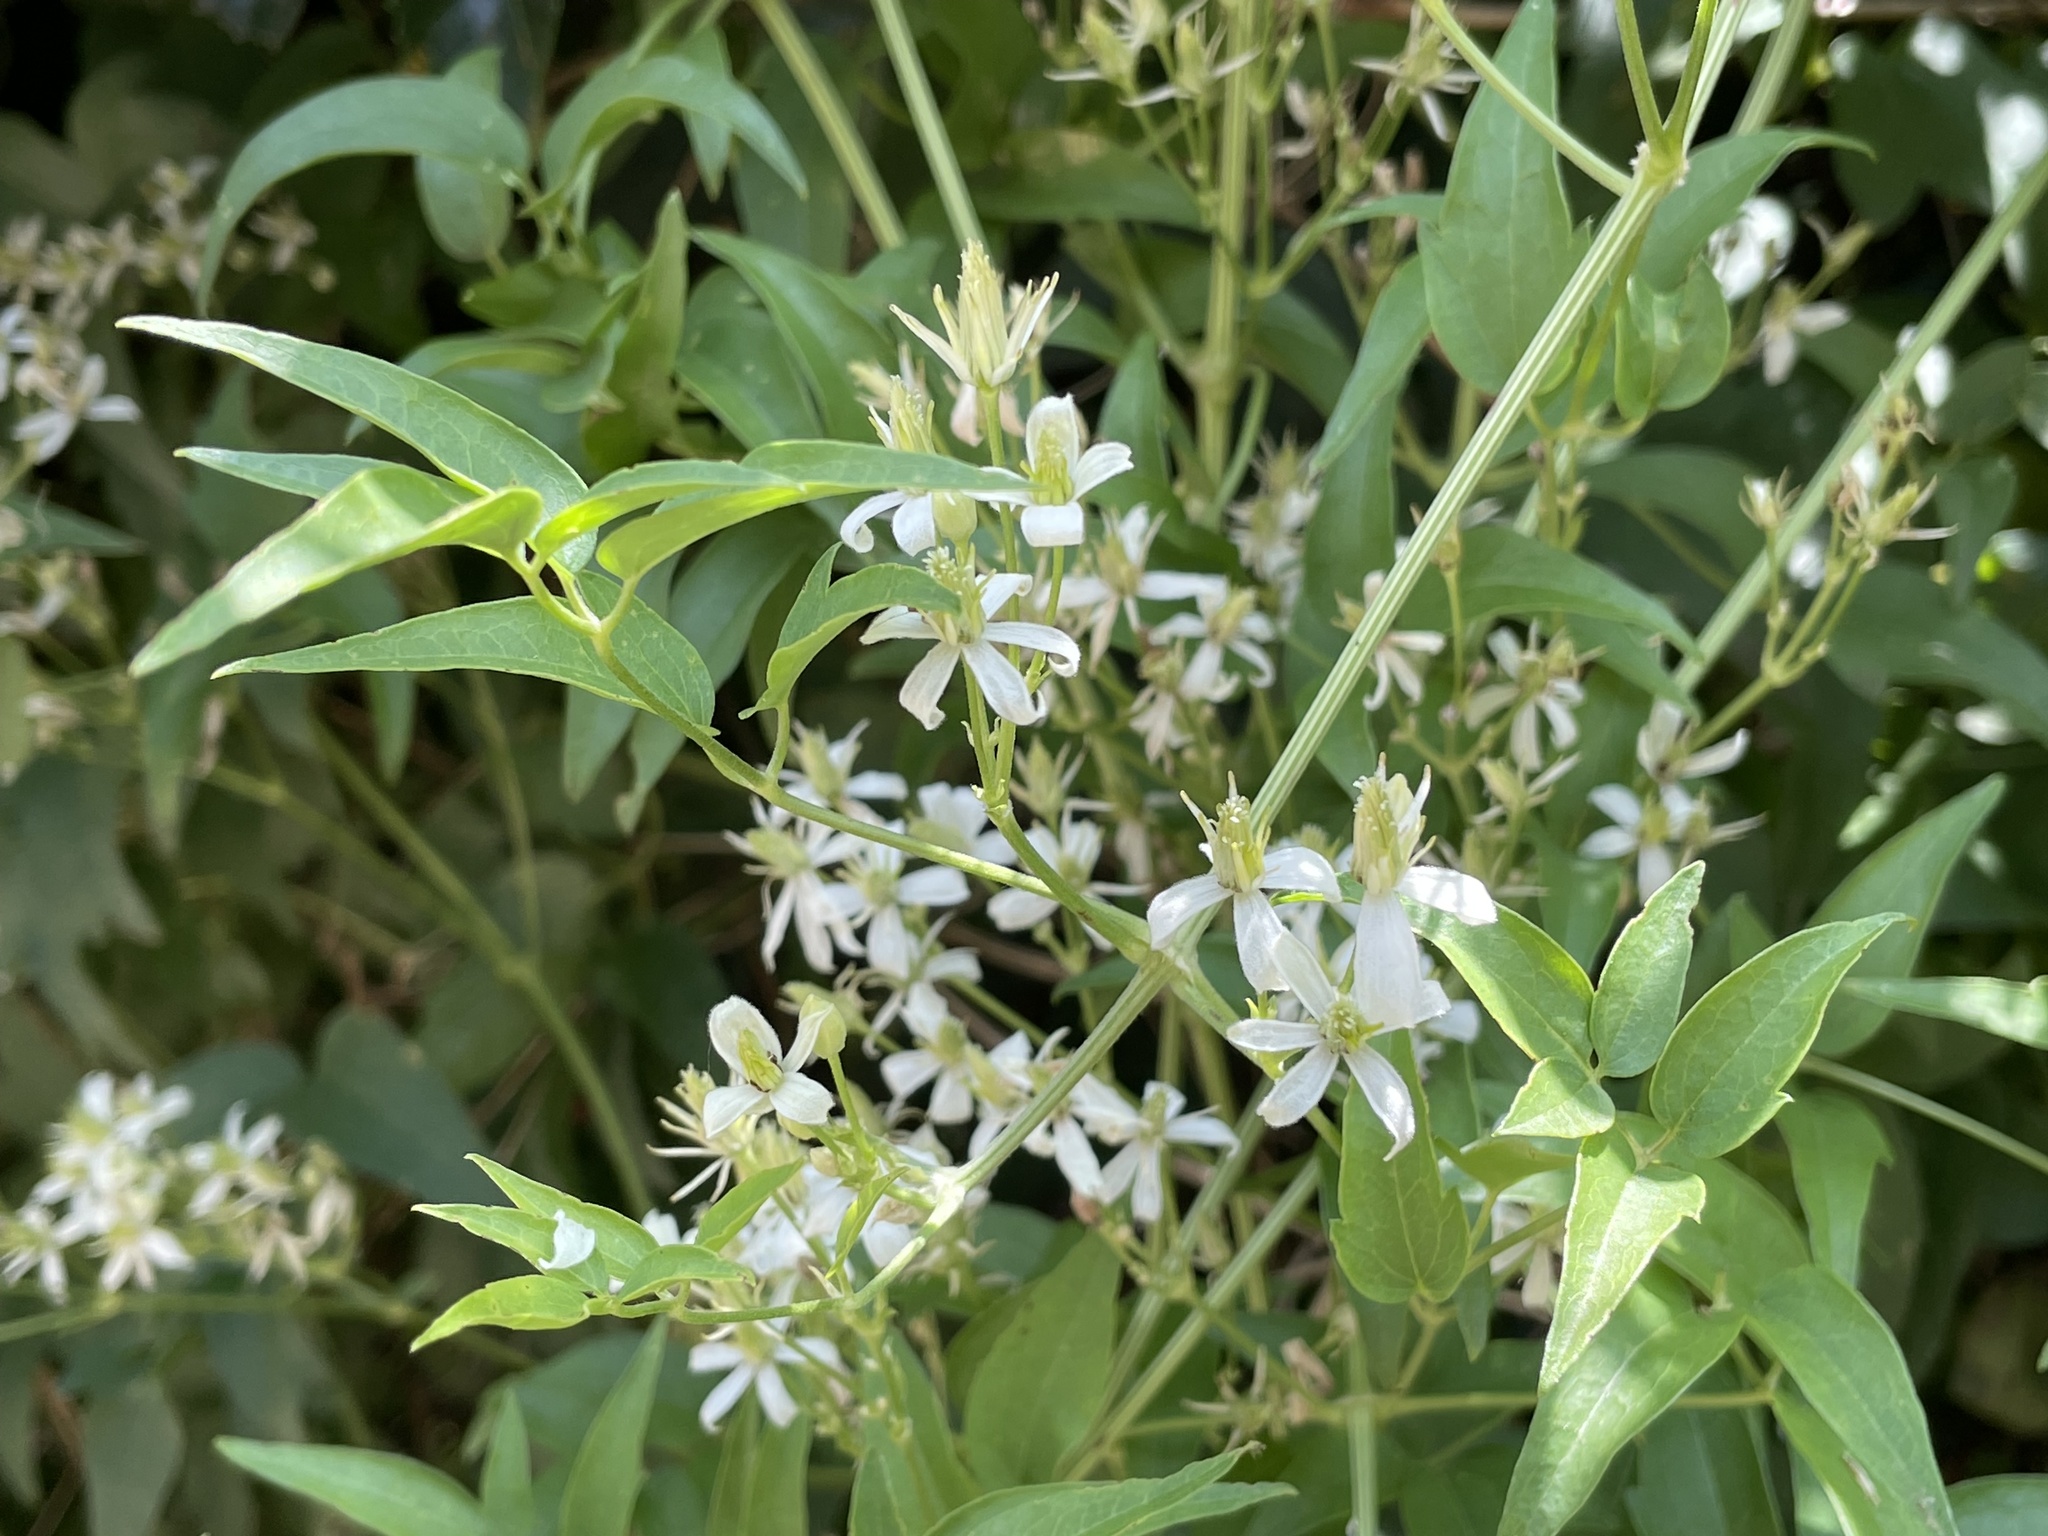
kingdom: Plantae
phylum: Tracheophyta
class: Magnoliopsida
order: Ranunculales
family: Ranunculaceae
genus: Clematis
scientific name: Clematis ligusticifolia
